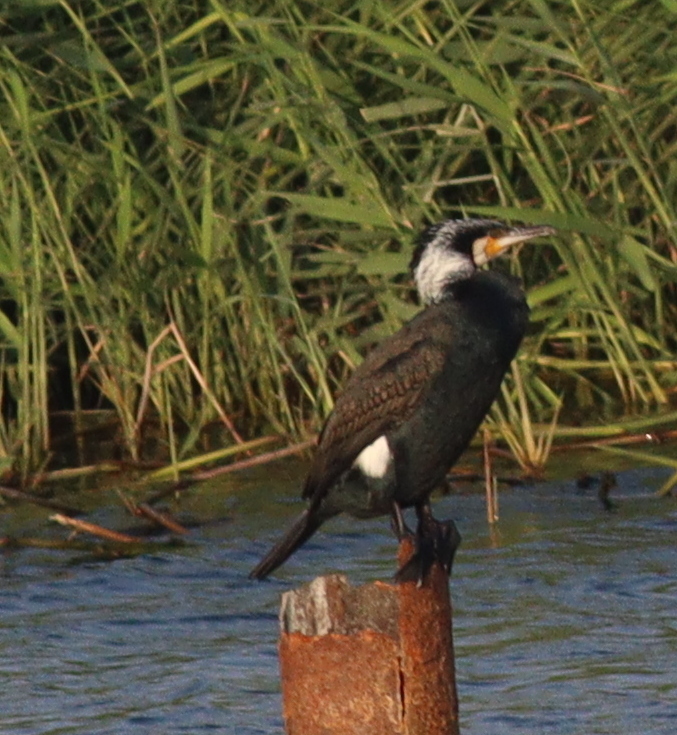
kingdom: Animalia
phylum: Chordata
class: Aves
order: Suliformes
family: Phalacrocoracidae
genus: Phalacrocorax
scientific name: Phalacrocorax carbo
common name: Great cormorant
